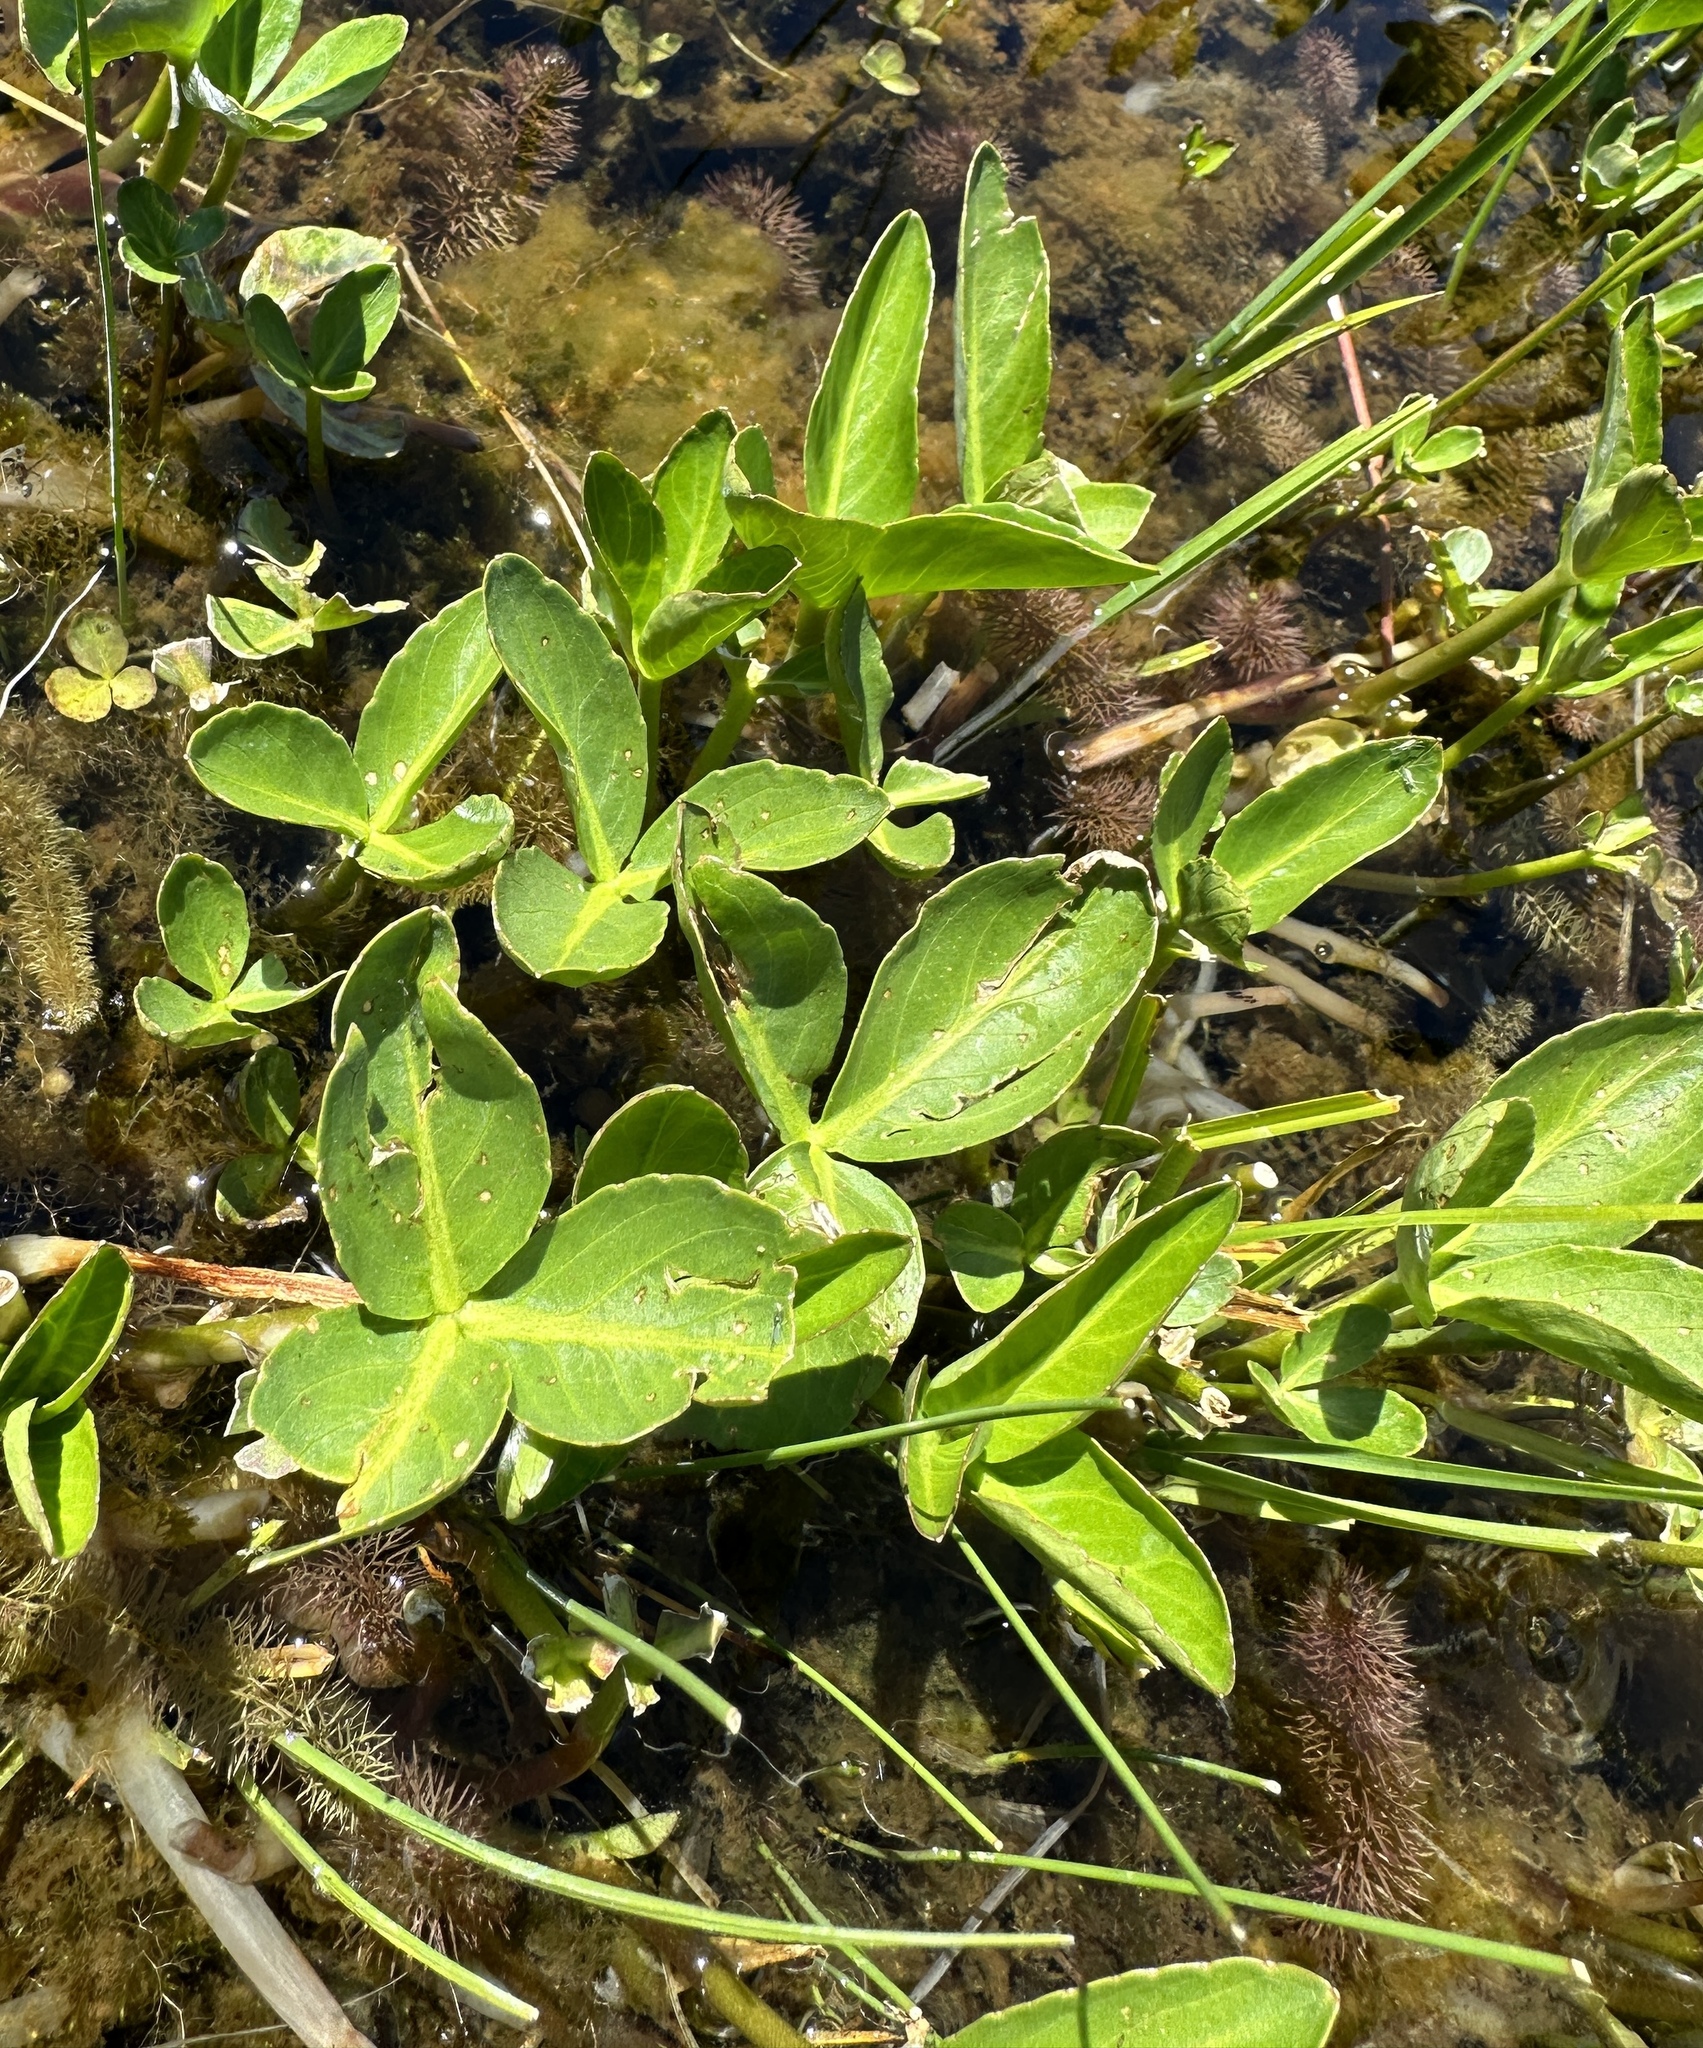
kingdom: Plantae
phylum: Tracheophyta
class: Magnoliopsida
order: Asterales
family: Menyanthaceae
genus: Menyanthes
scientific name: Menyanthes trifoliata
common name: Bogbean
